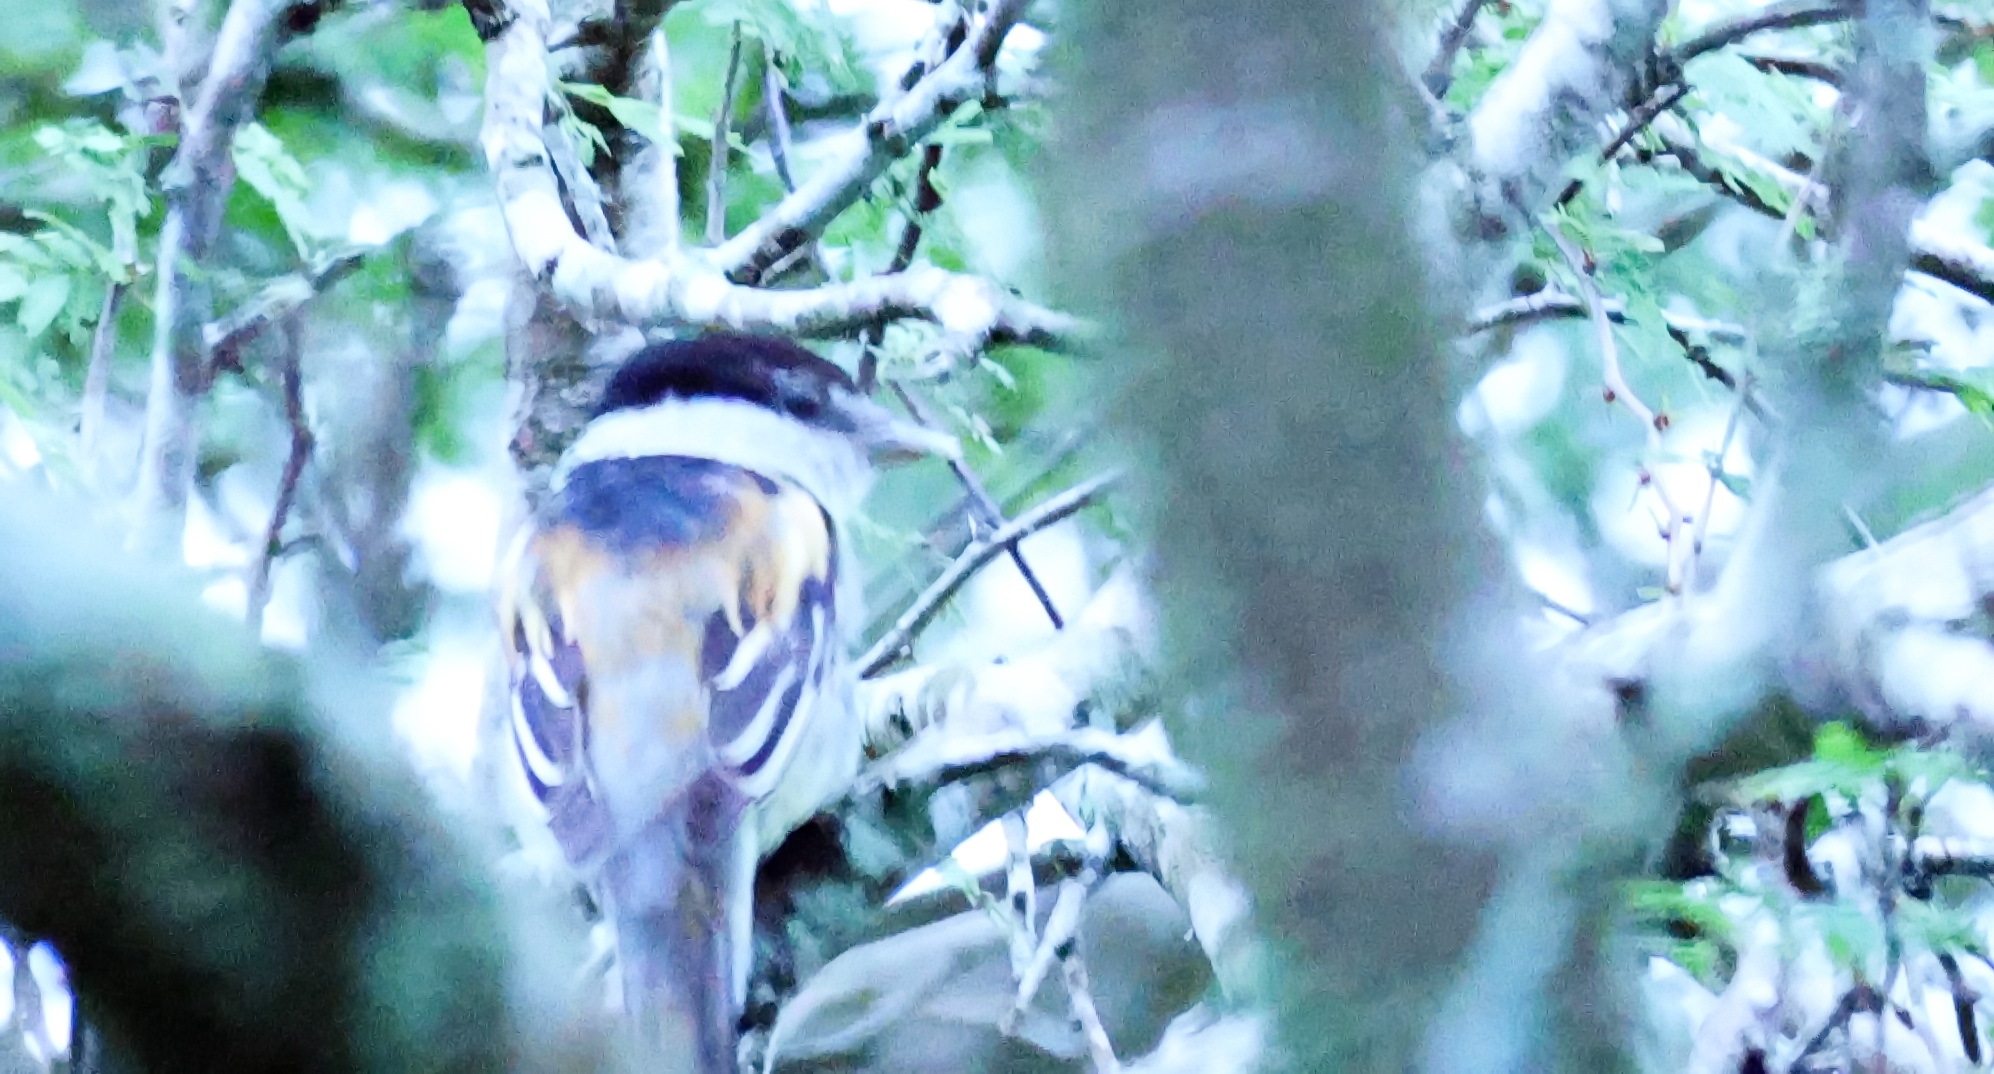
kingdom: Animalia
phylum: Chordata
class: Aves
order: Passeriformes
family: Cotingidae
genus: Pachyramphus
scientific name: Pachyramphus major
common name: Gray-collared becard
